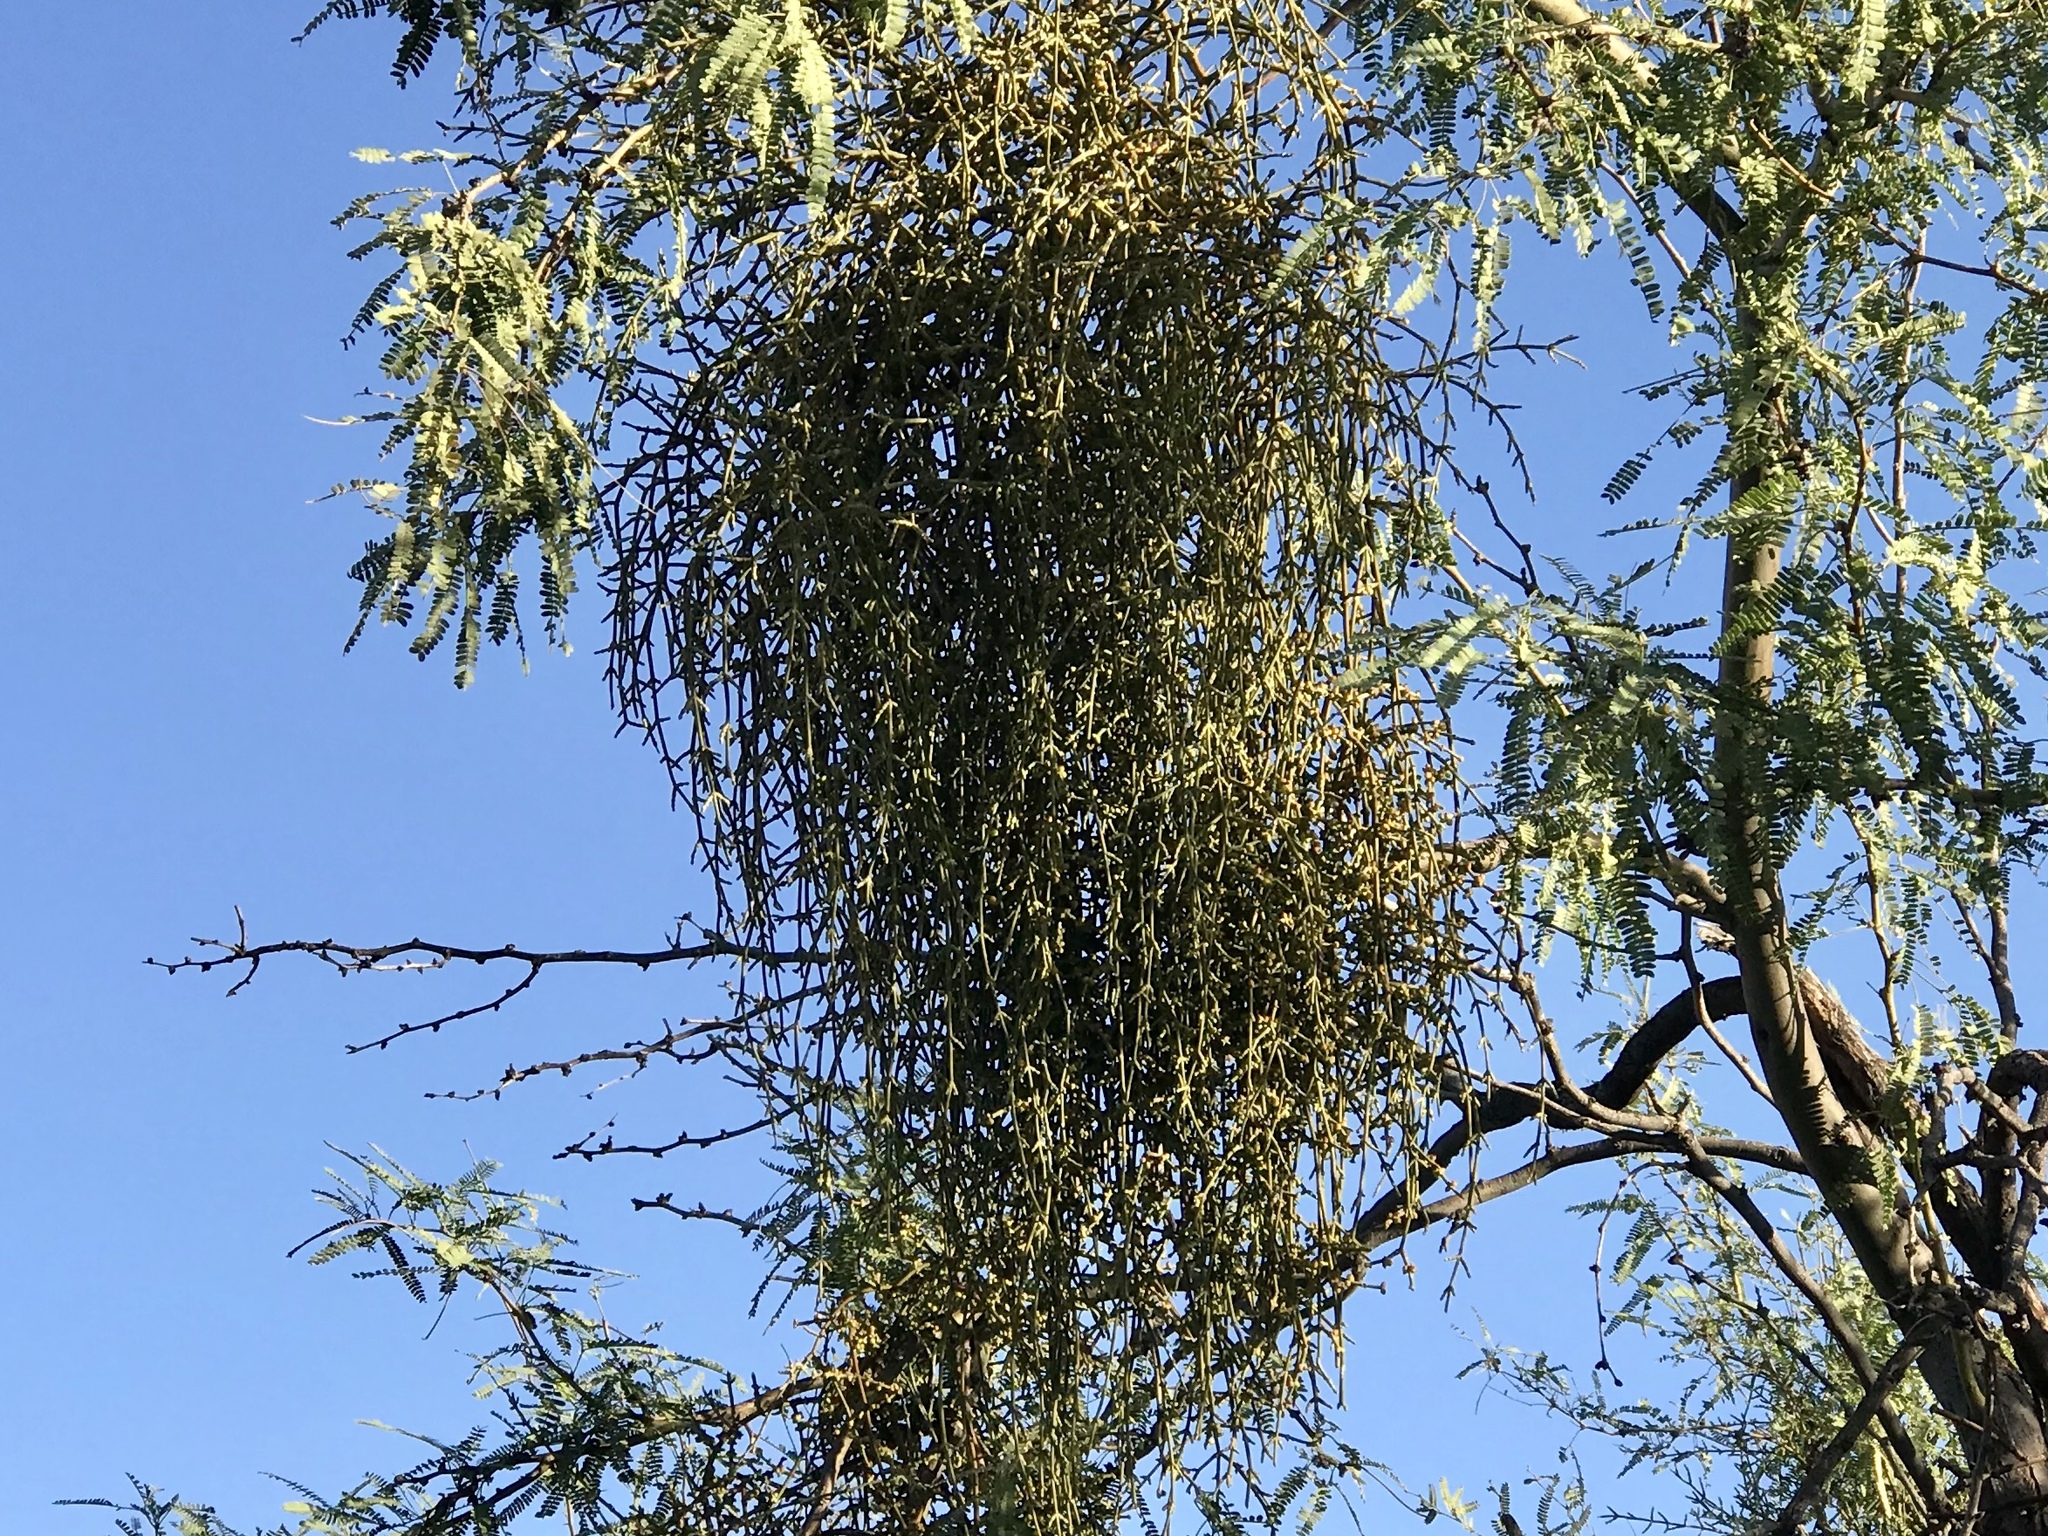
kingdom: Plantae
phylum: Tracheophyta
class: Magnoliopsida
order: Santalales
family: Viscaceae
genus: Phoradendron
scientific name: Phoradendron californicum
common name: Acacia mistletoe
